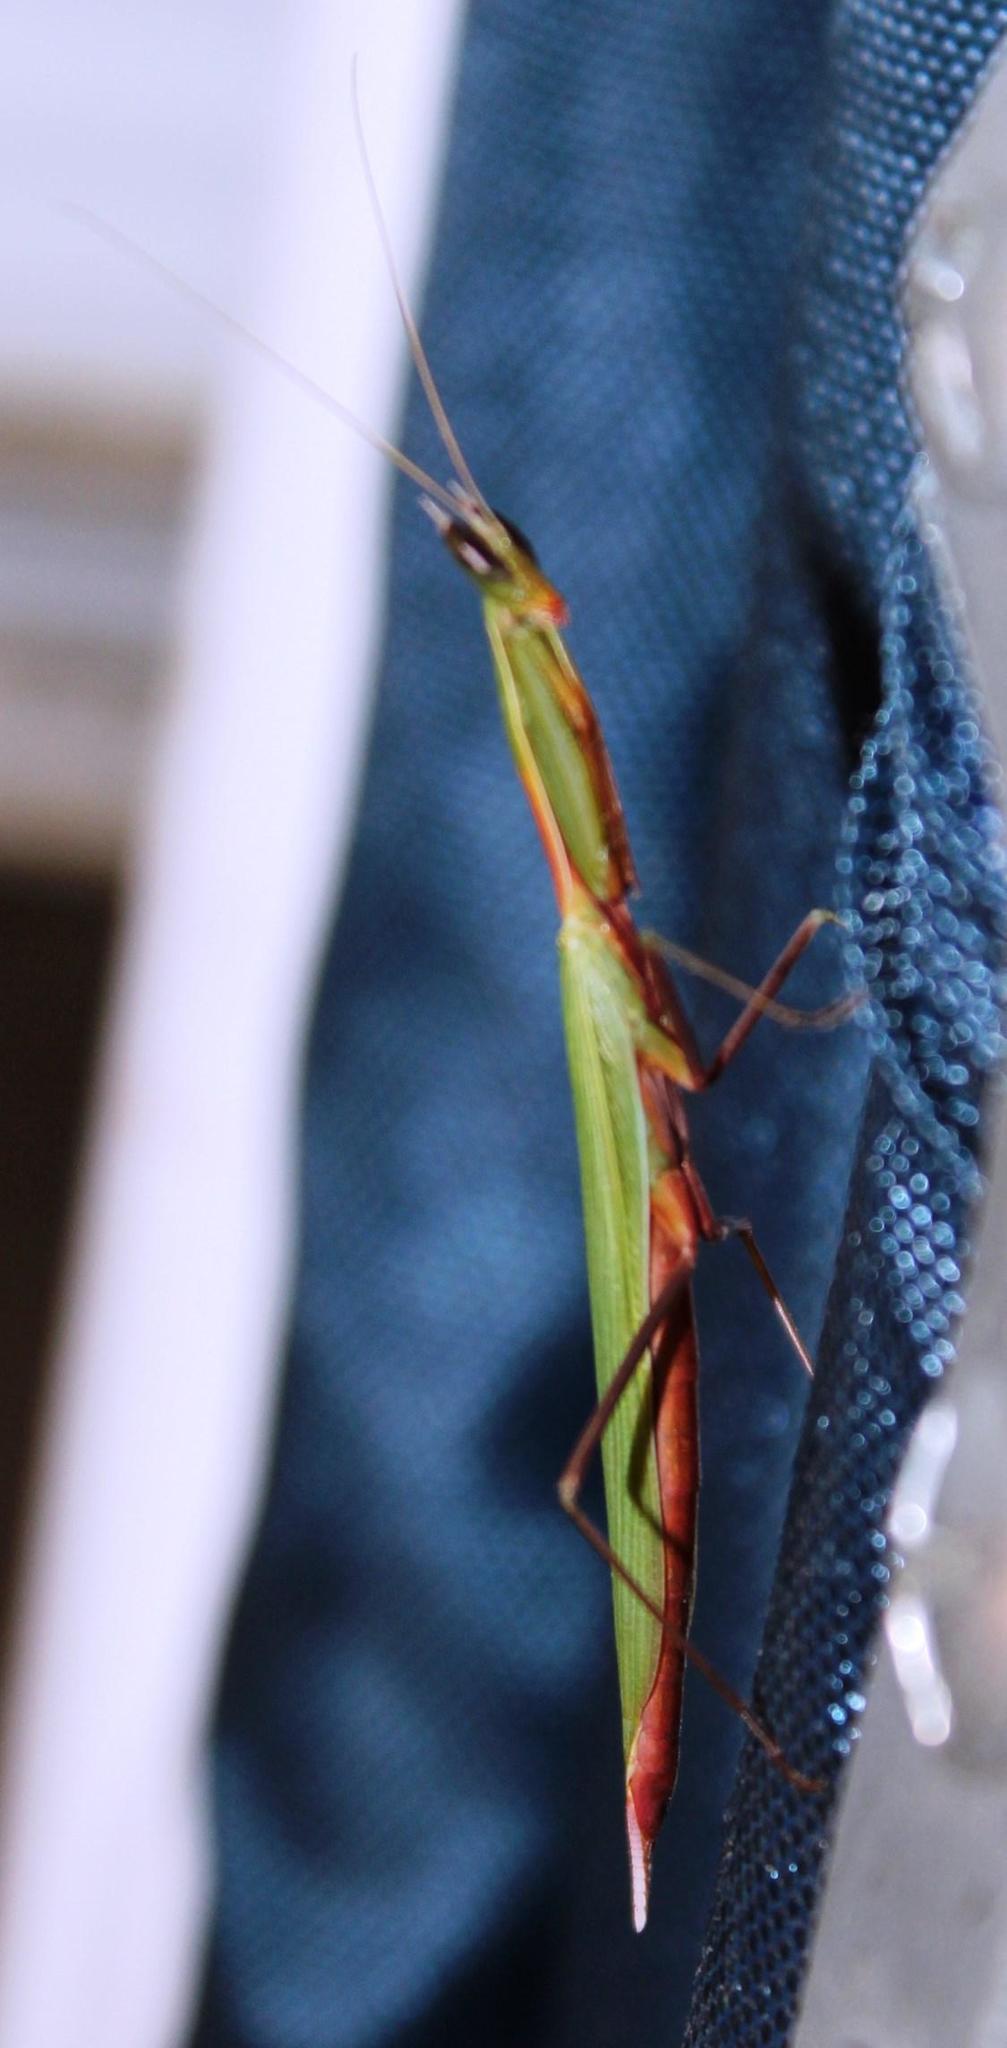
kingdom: Animalia
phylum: Arthropoda
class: Insecta
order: Mantodea
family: Eremiaphilidae
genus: Episcopomantis
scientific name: Episcopomantis chalybea
